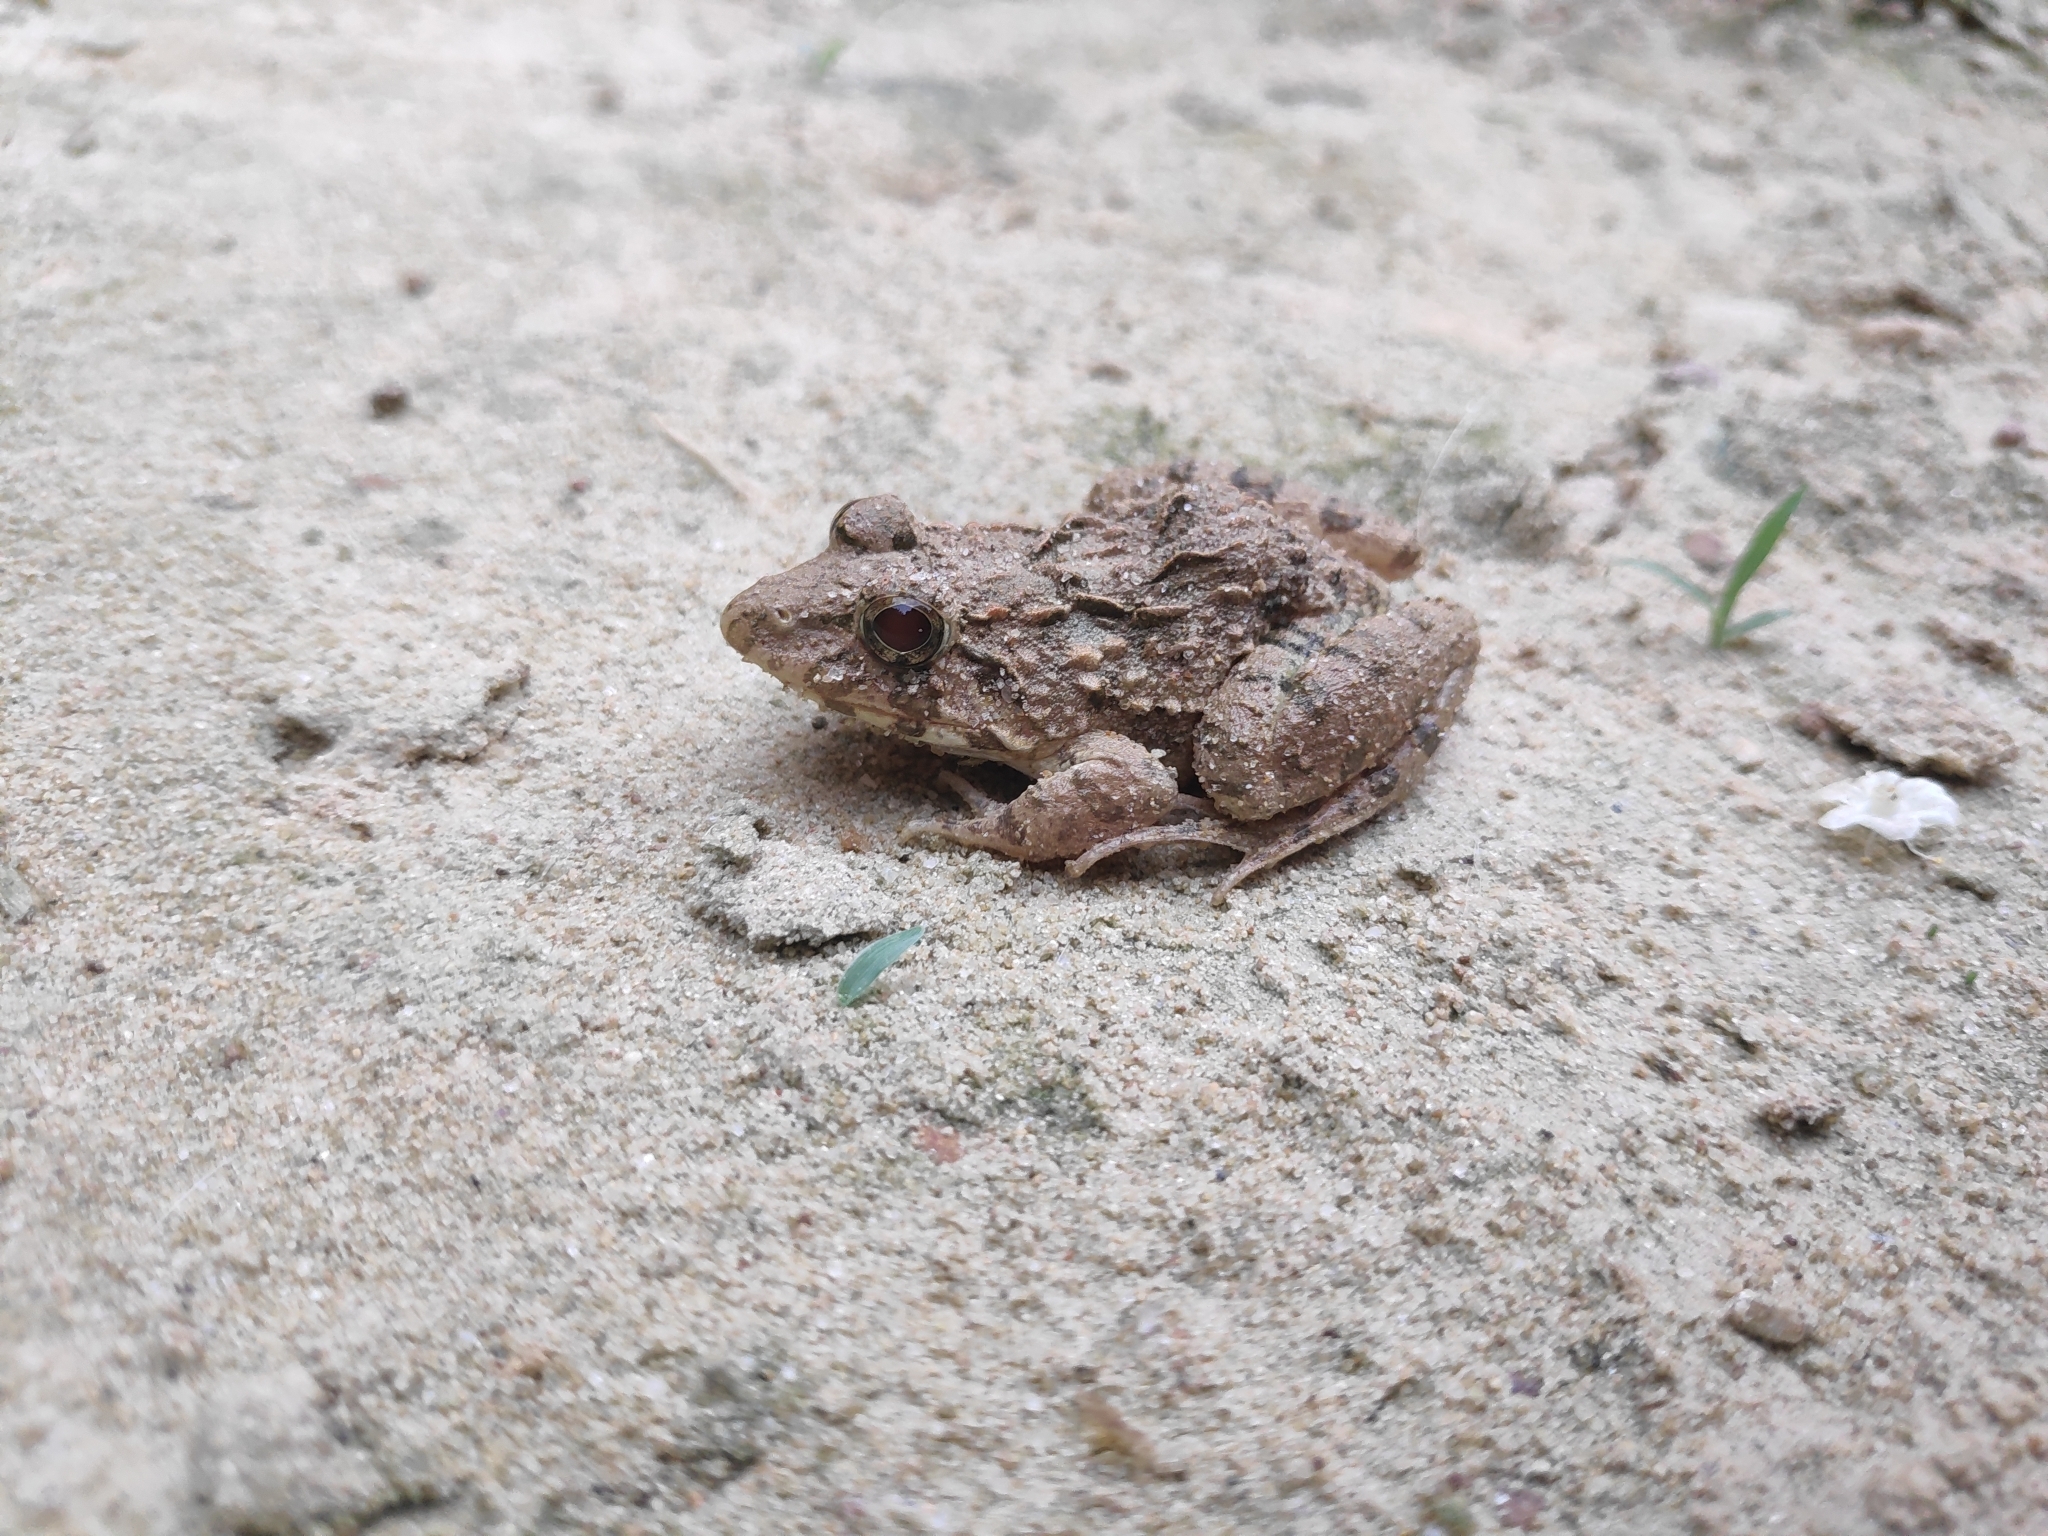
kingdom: Animalia
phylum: Chordata
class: Amphibia
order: Anura
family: Dicroglossidae
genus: Fejervarya
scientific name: Fejervarya limnocharis
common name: Asian grass frog/common pond frog/field frog/grass frog/indian rice frog
